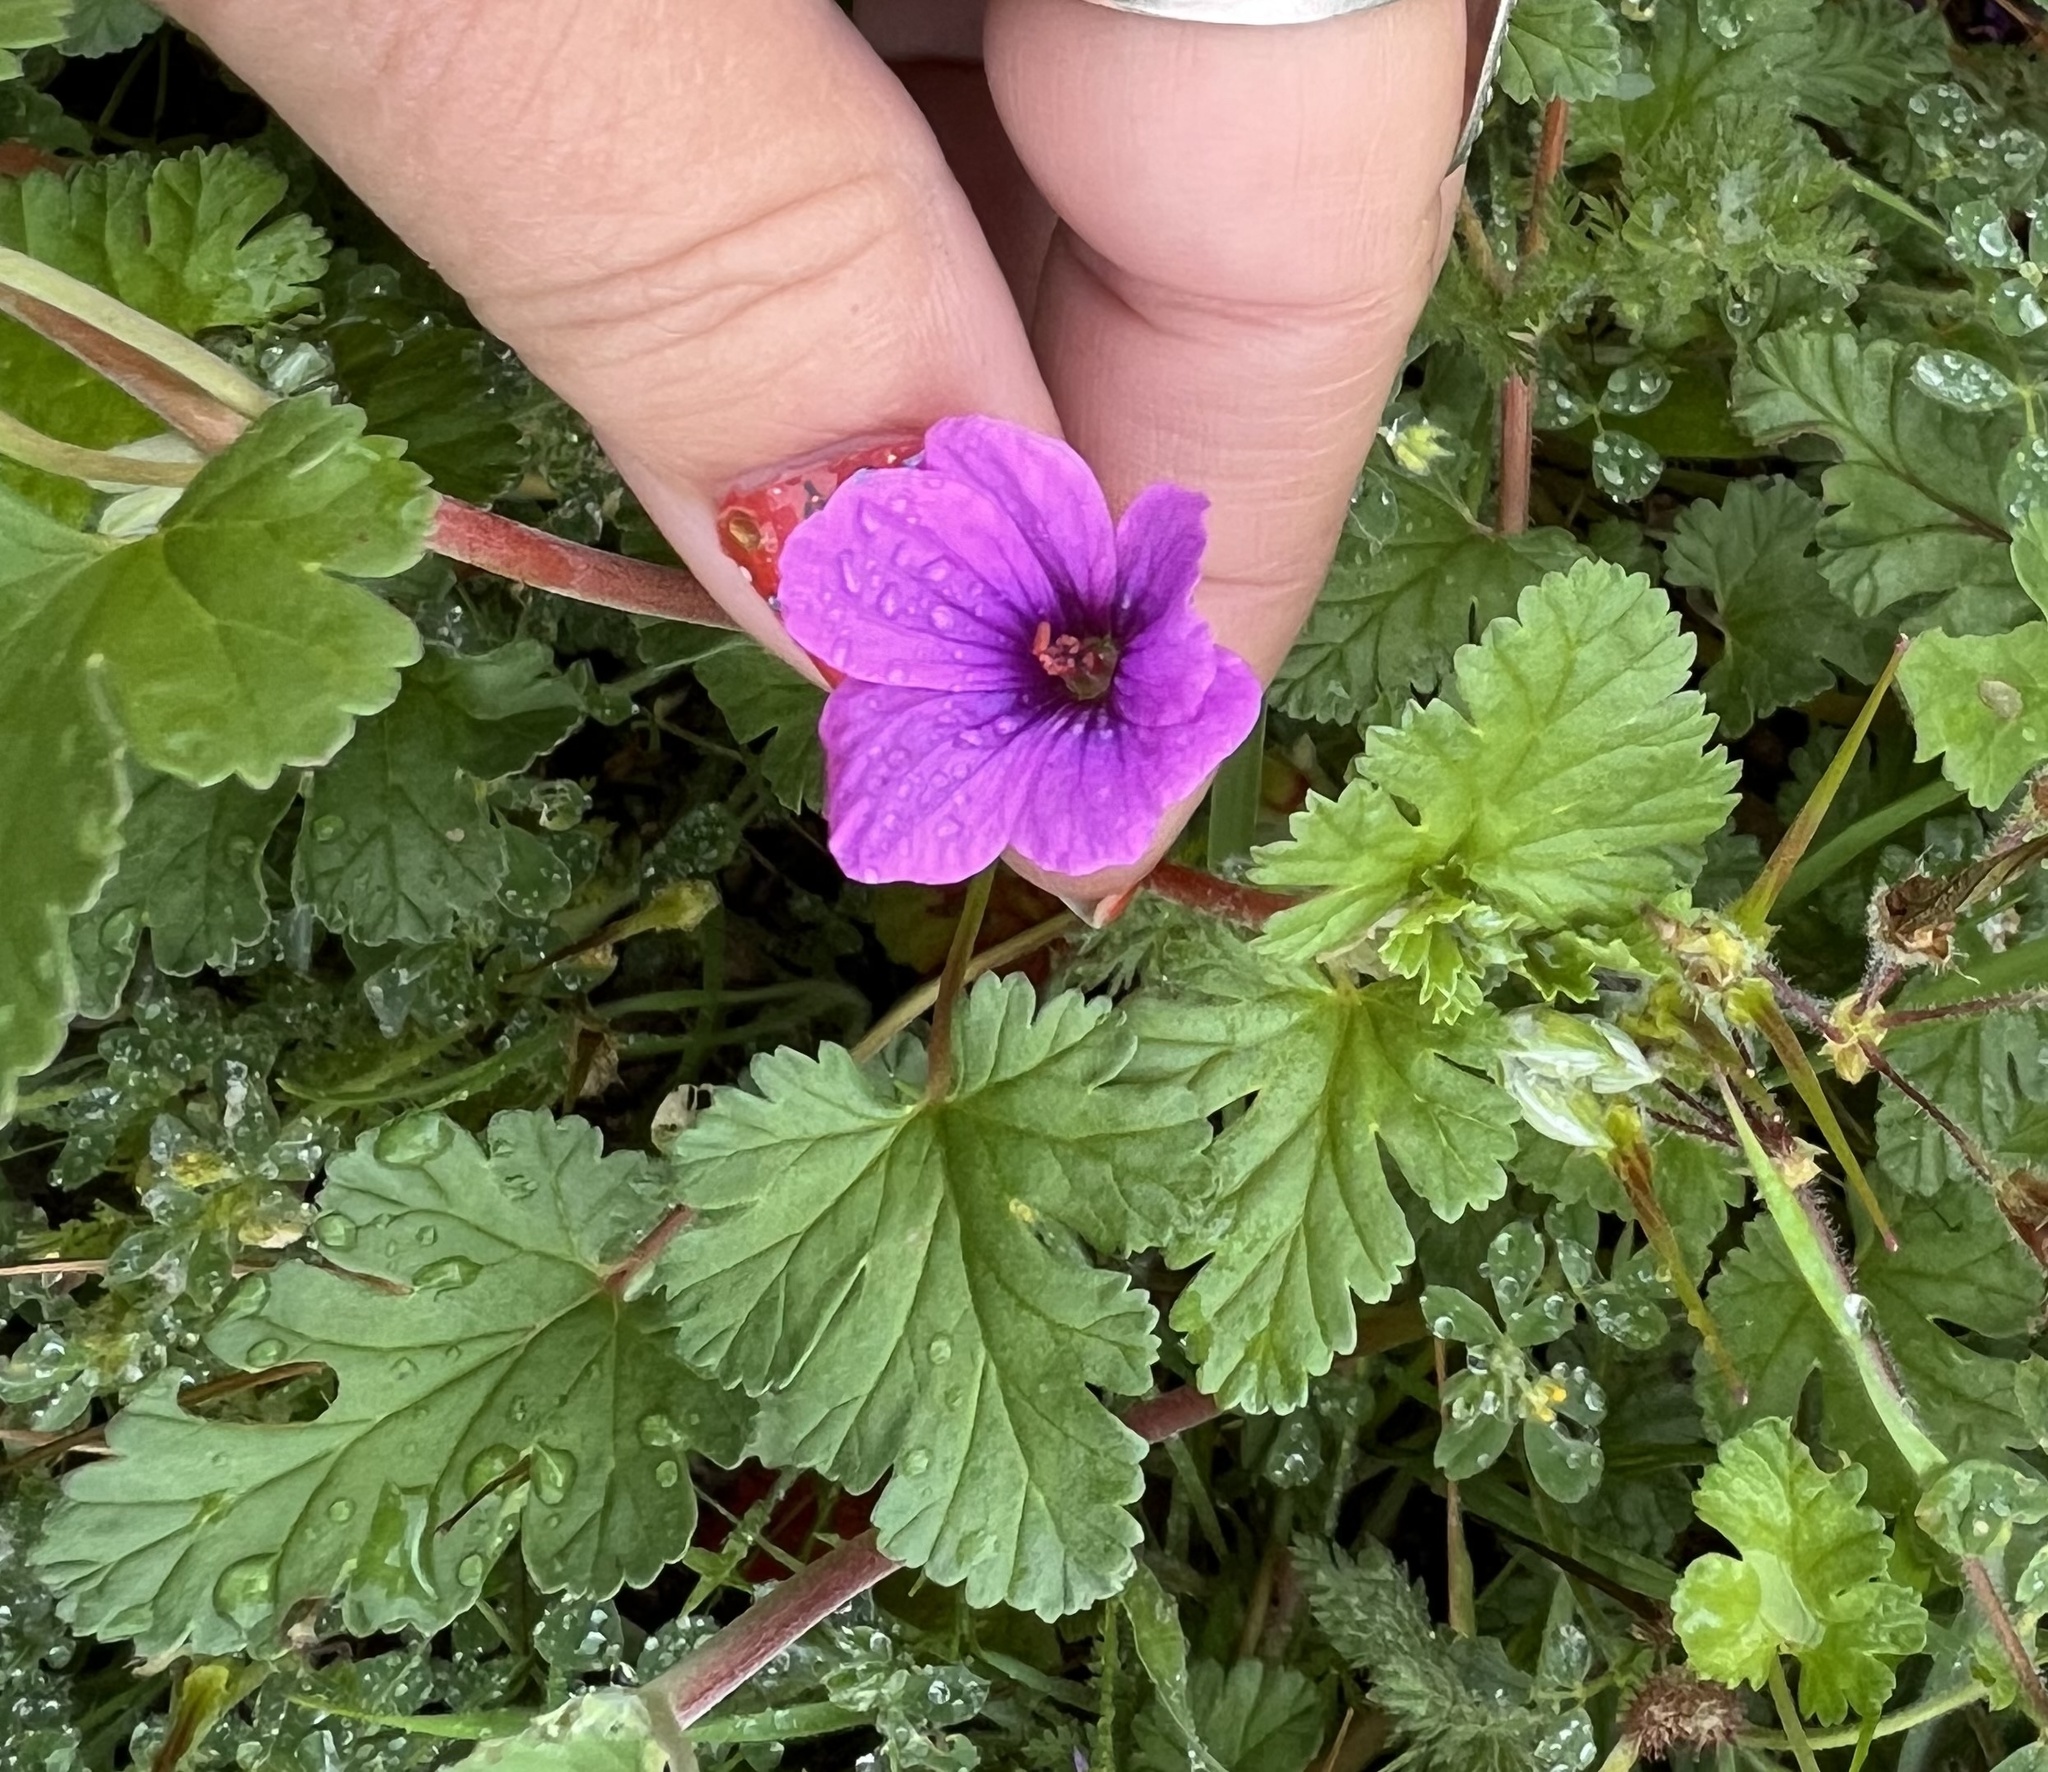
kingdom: Plantae
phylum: Tracheophyta
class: Magnoliopsida
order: Geraniales
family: Geraniaceae
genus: Erodium
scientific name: Erodium texanum
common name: Texas stork's-bill
